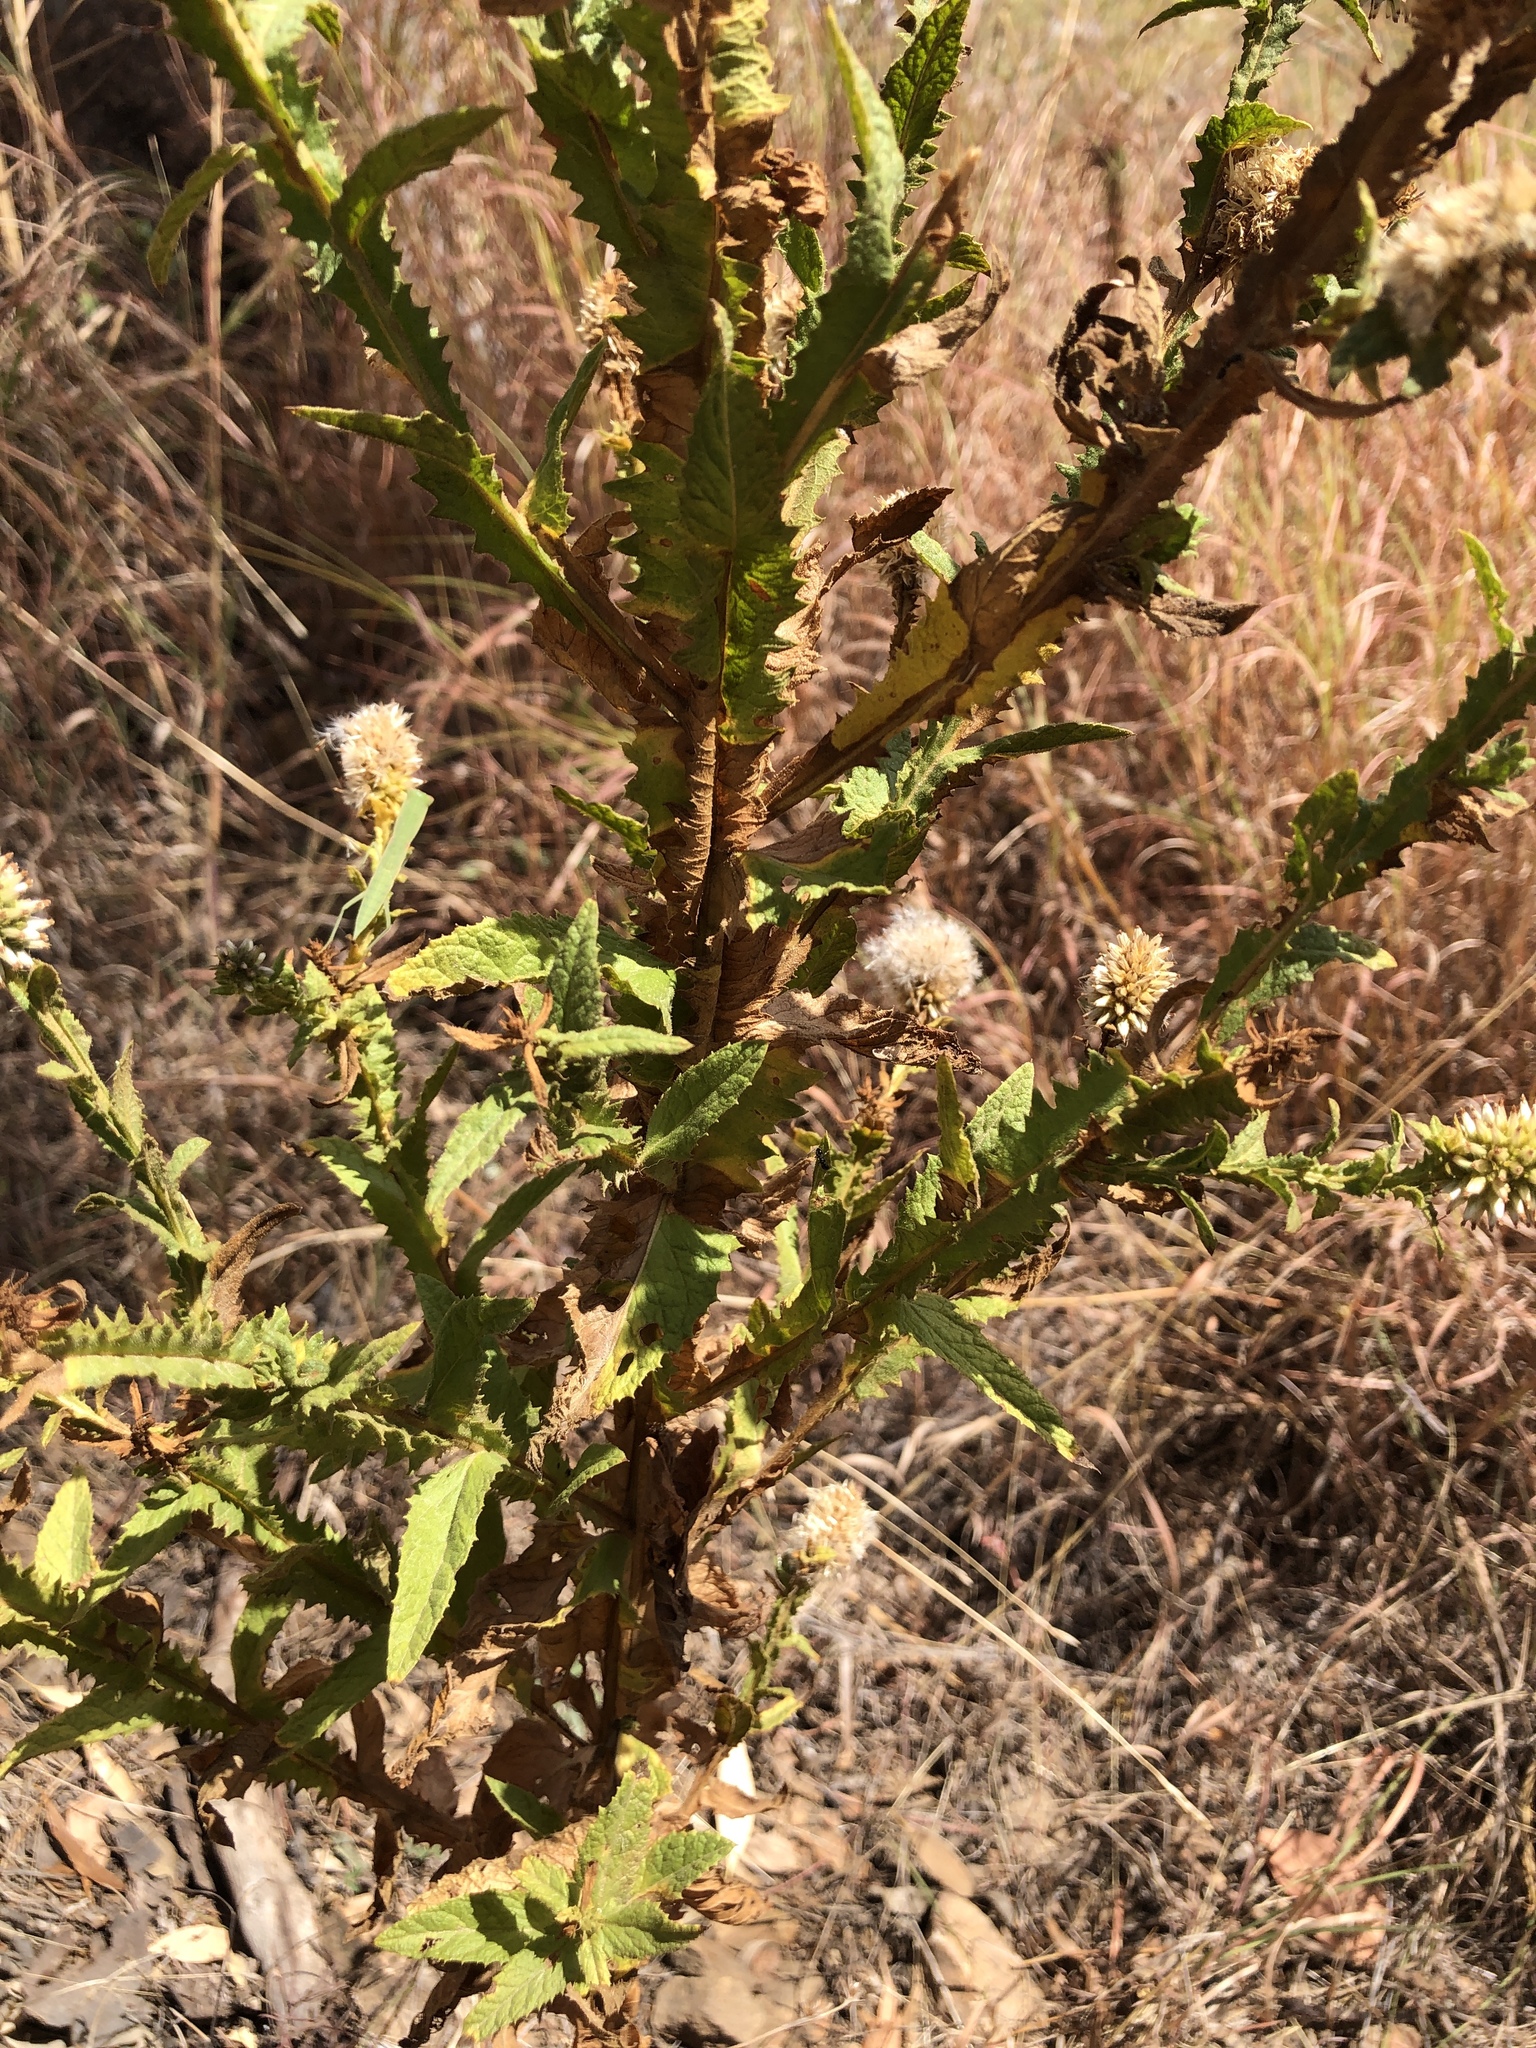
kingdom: Plantae
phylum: Tracheophyta
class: Magnoliopsida
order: Asterales
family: Asteraceae
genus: Pterocaulon
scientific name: Pterocaulon serrulatum
